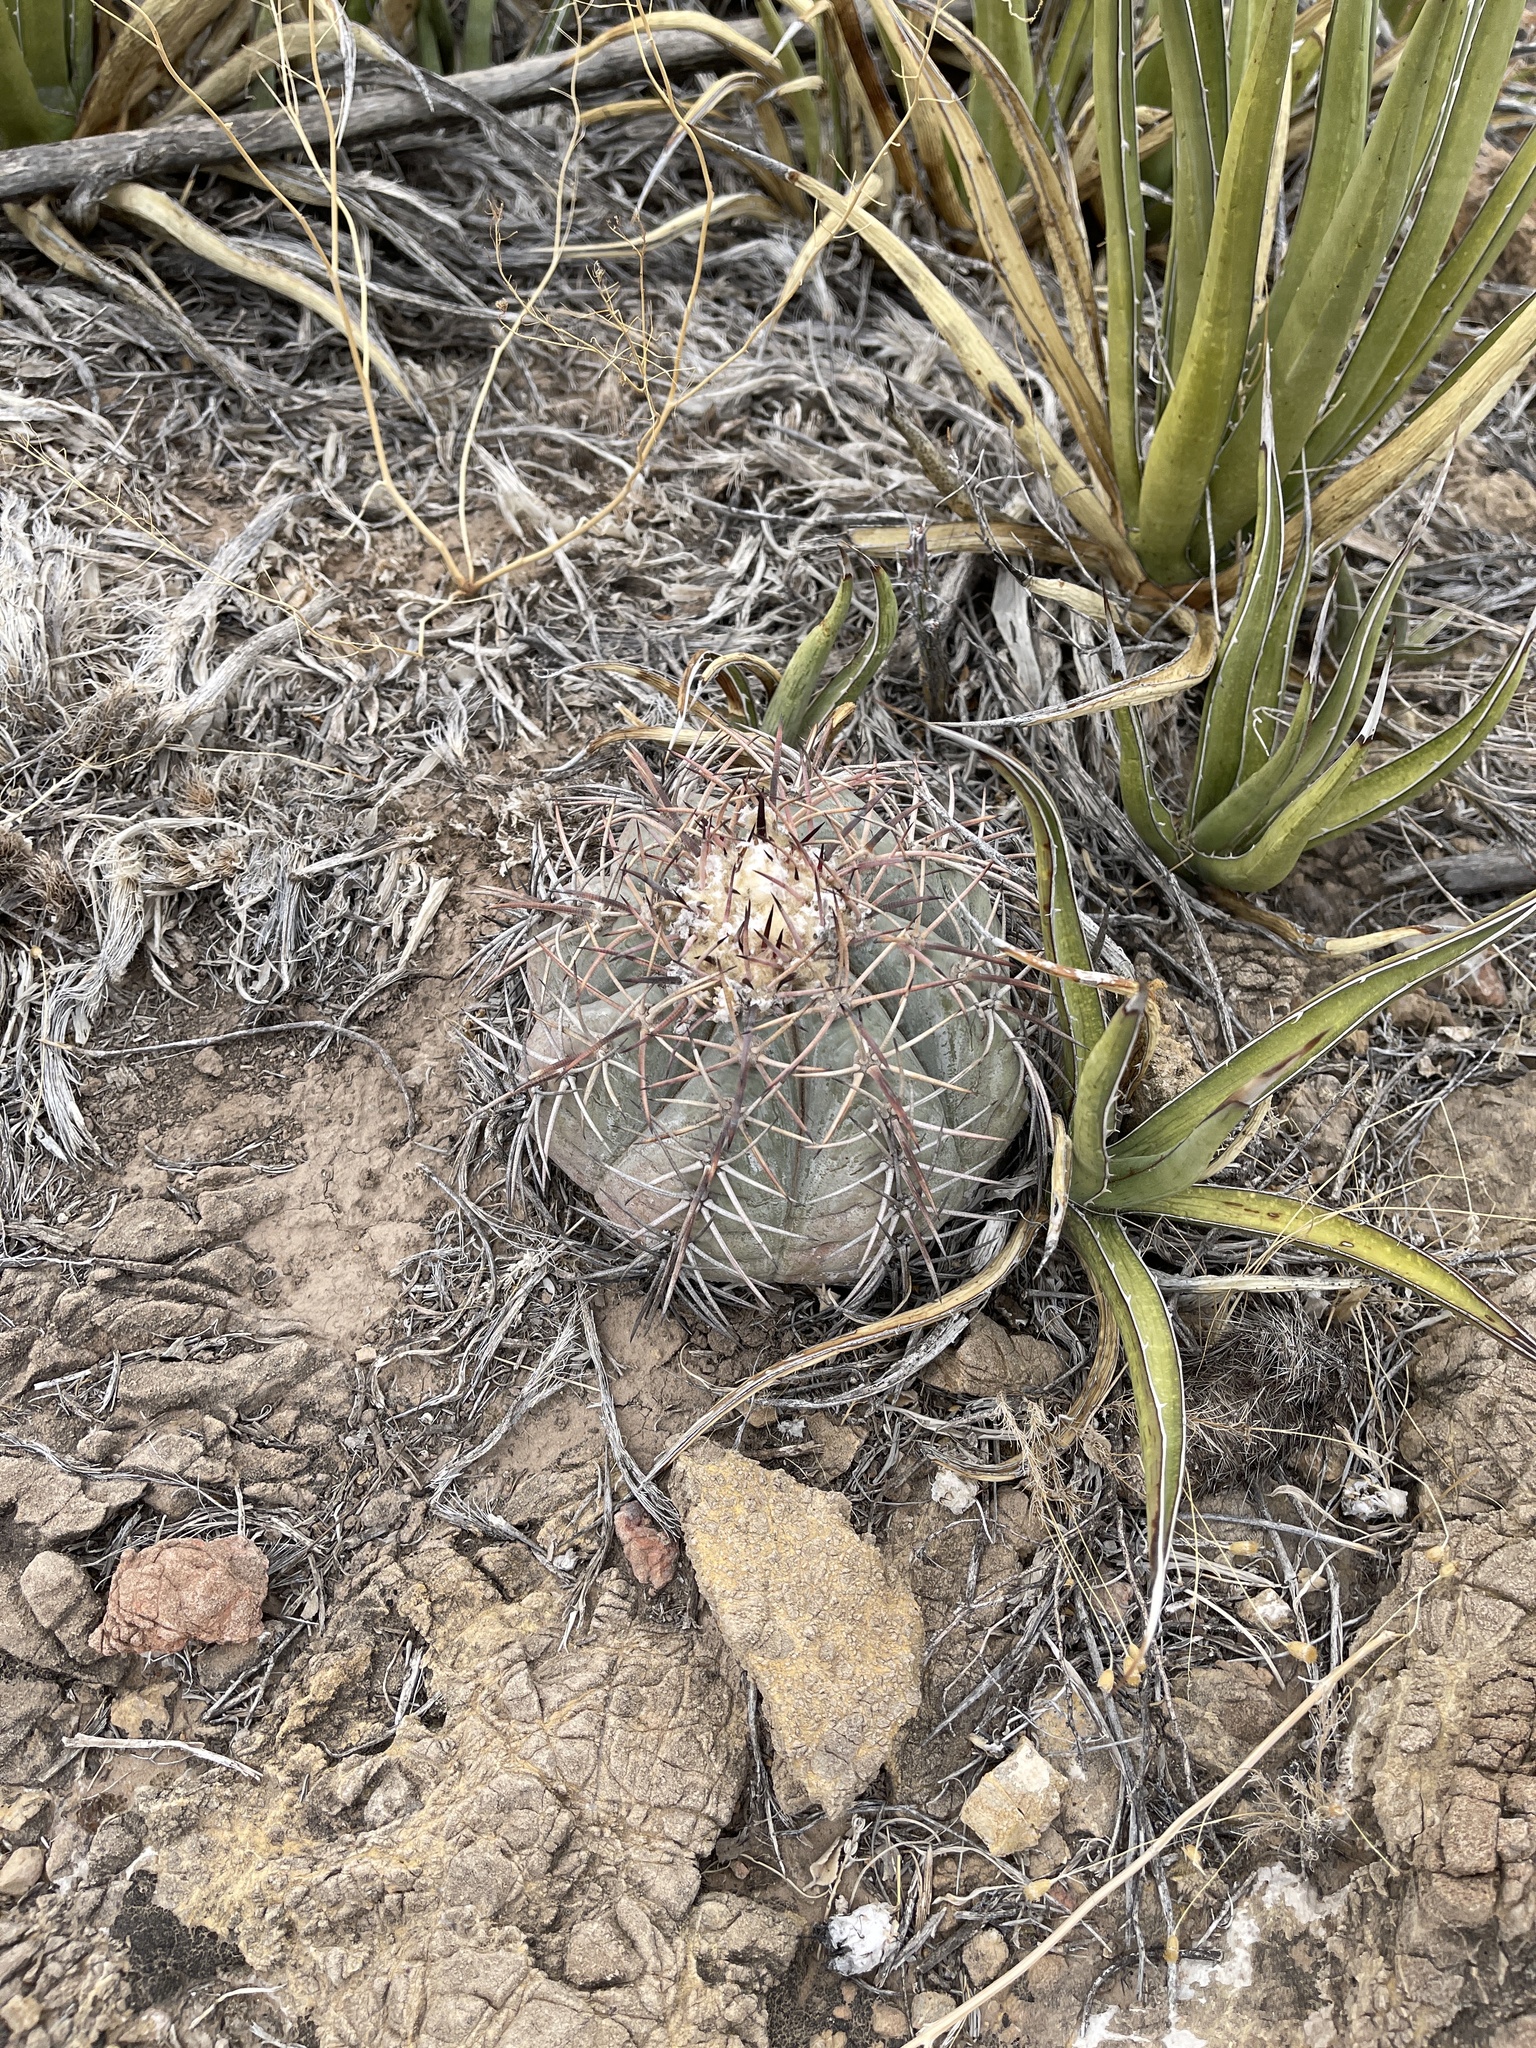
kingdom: Plantae
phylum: Tracheophyta
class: Magnoliopsida
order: Caryophyllales
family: Cactaceae
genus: Echinocactus
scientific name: Echinocactus horizonthalonius
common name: Devilshead
